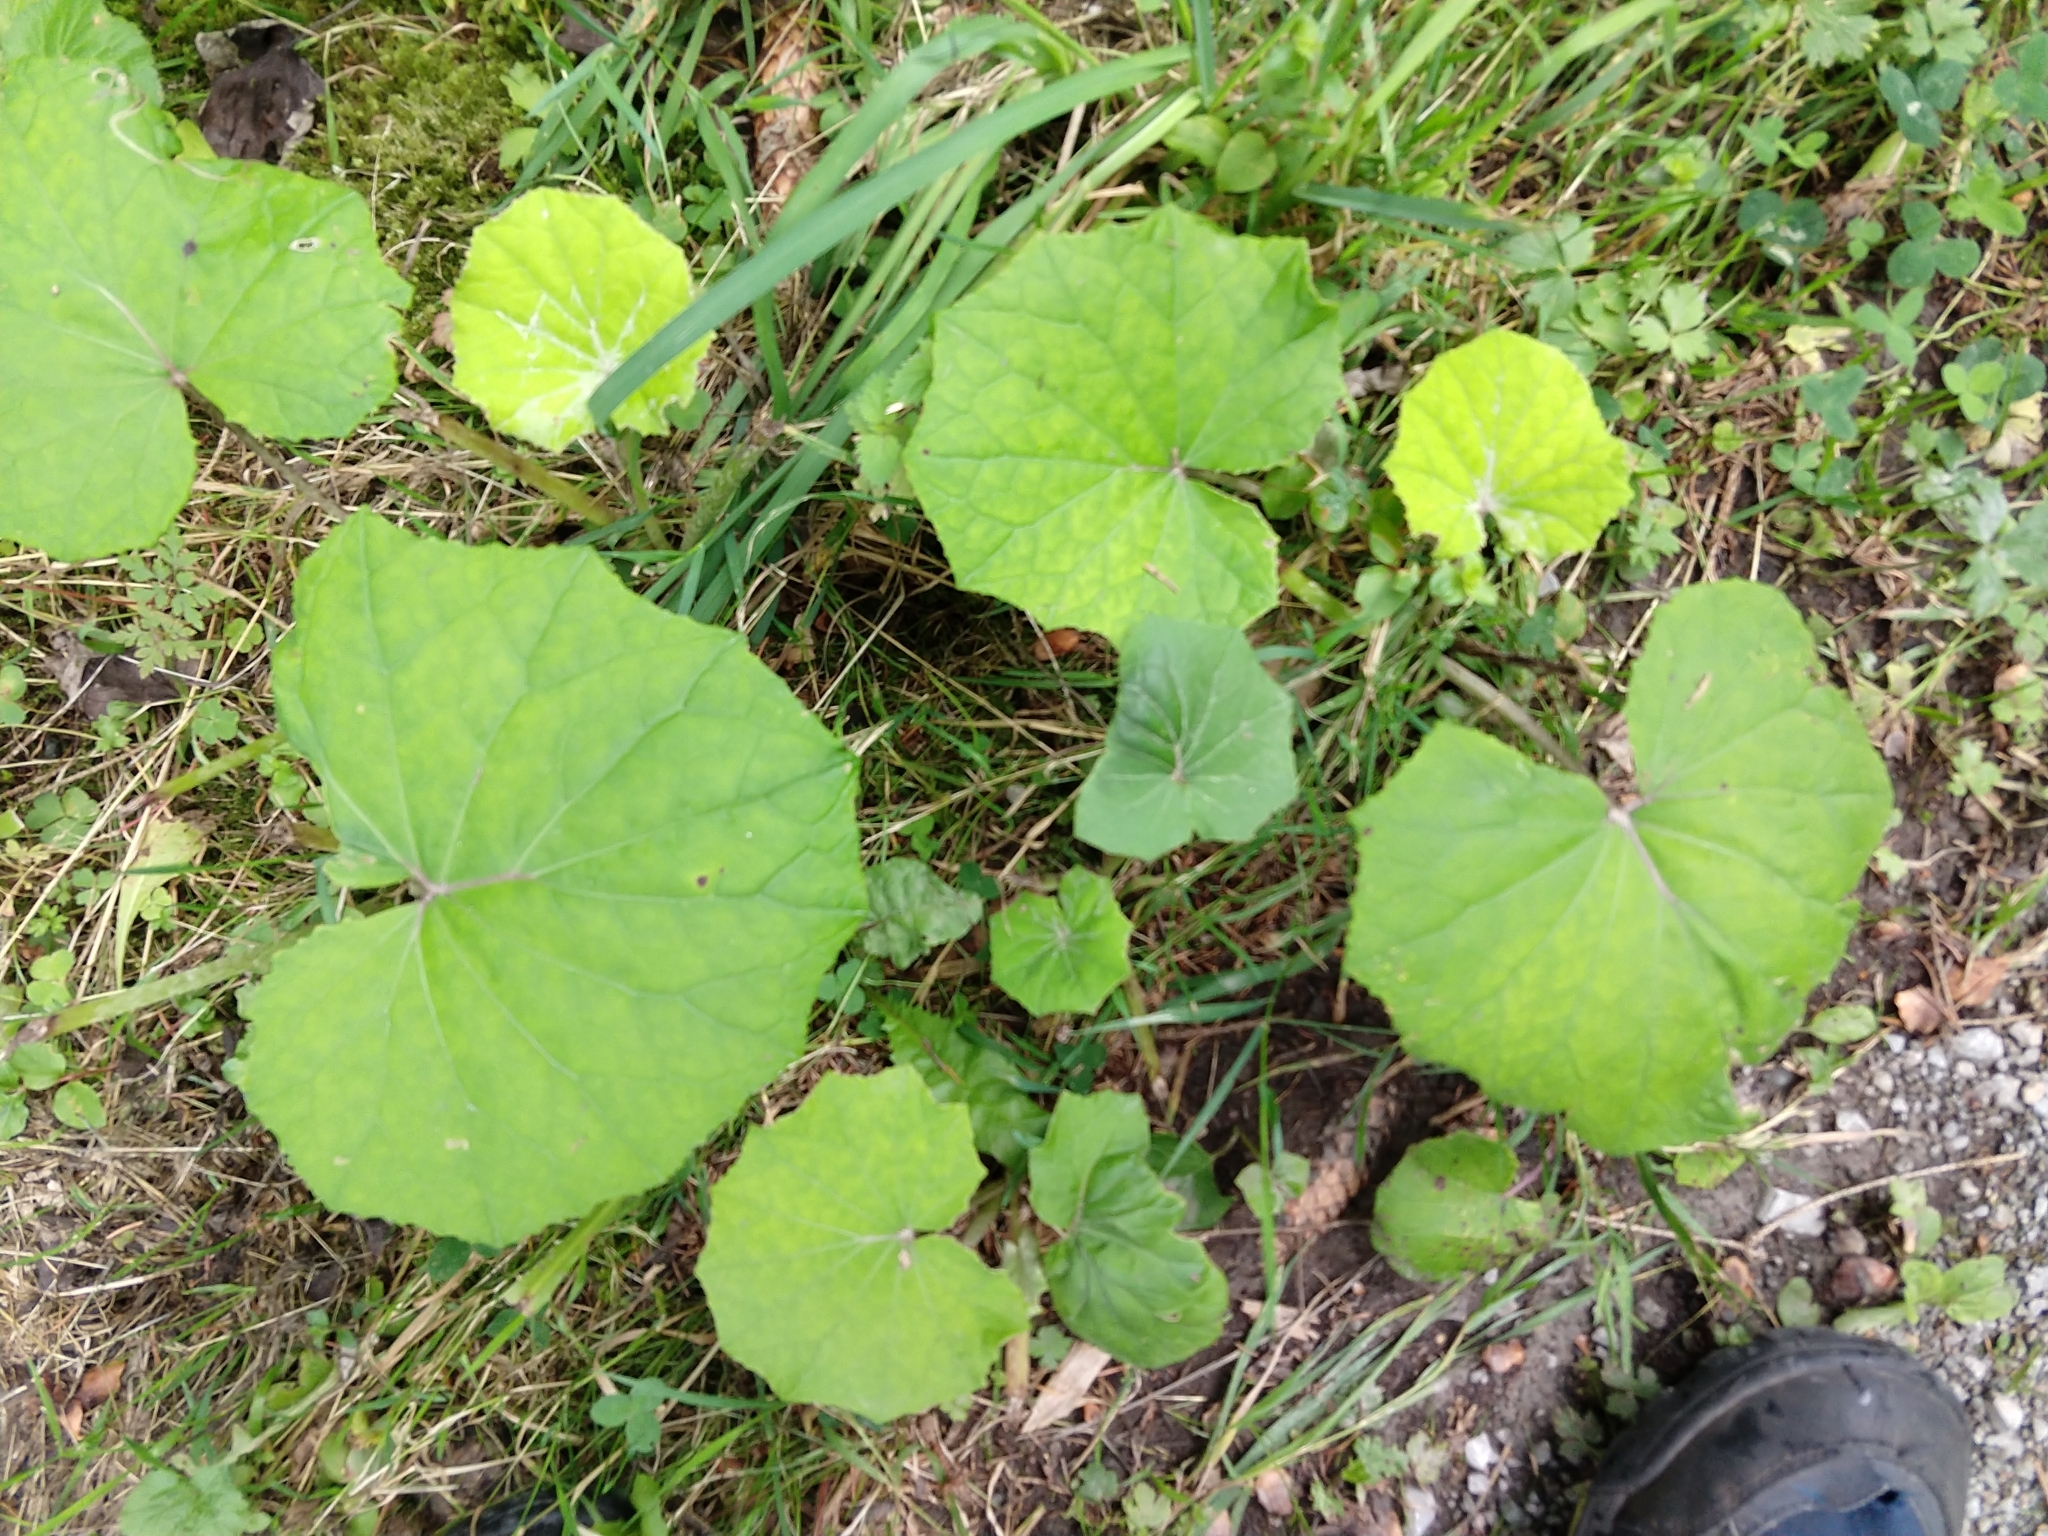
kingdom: Plantae
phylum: Tracheophyta
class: Magnoliopsida
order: Asterales
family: Asteraceae
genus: Tussilago
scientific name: Tussilago farfara
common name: Coltsfoot
